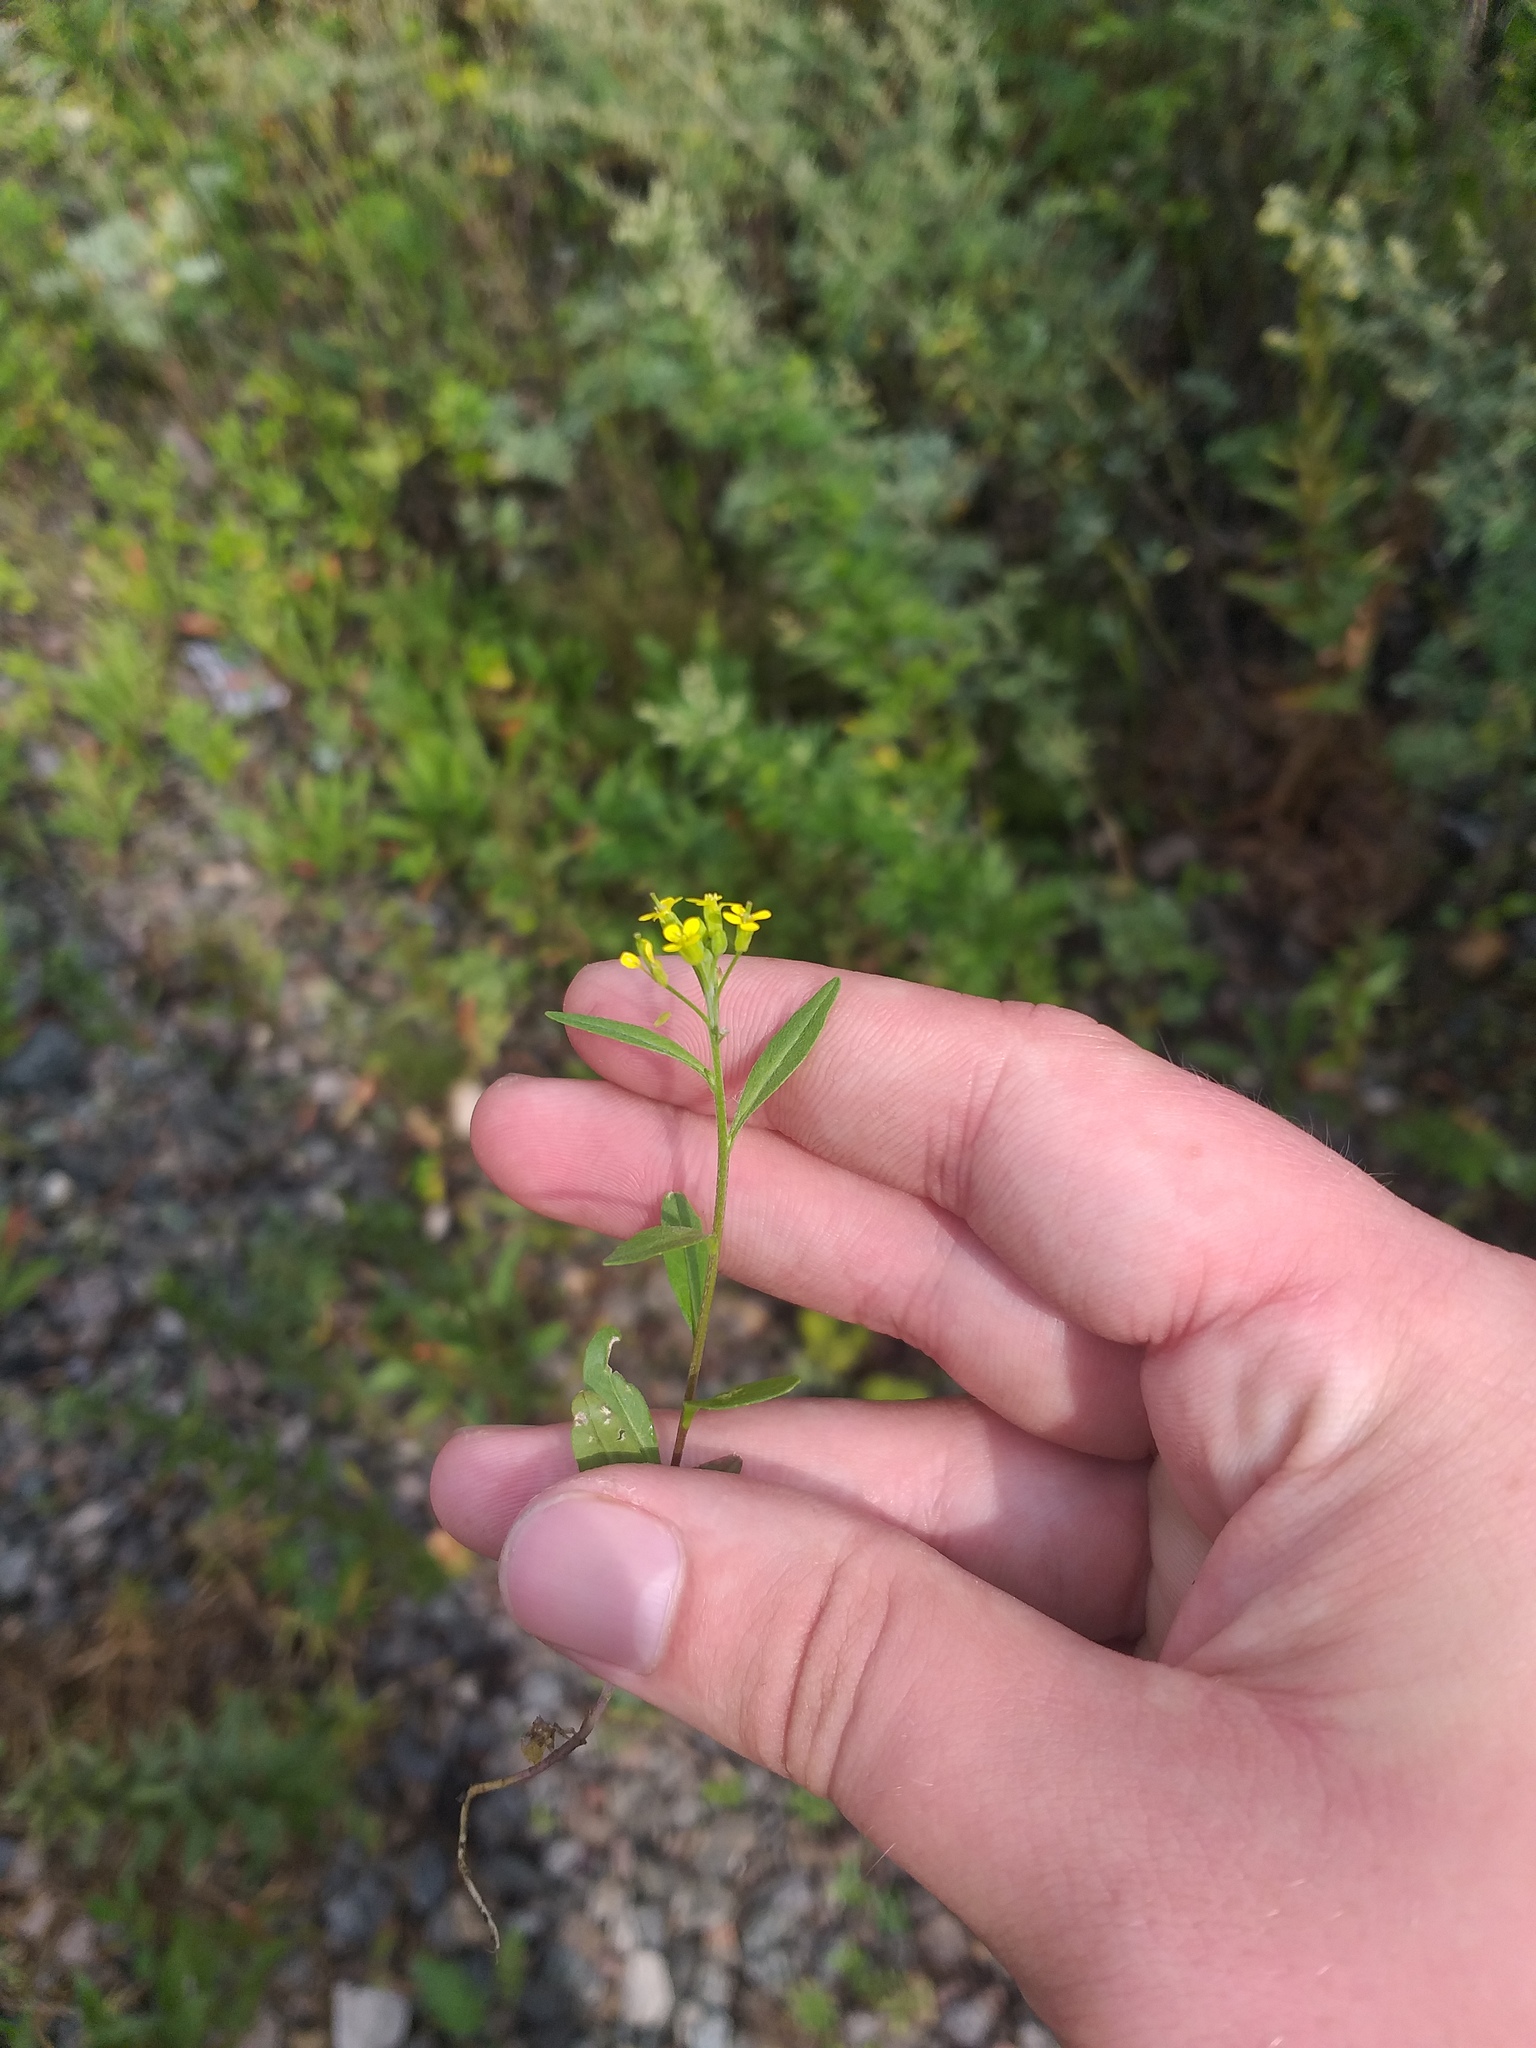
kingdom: Plantae
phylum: Tracheophyta
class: Magnoliopsida
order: Brassicales
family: Brassicaceae
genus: Erysimum
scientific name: Erysimum cheiranthoides
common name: Treacle mustard
